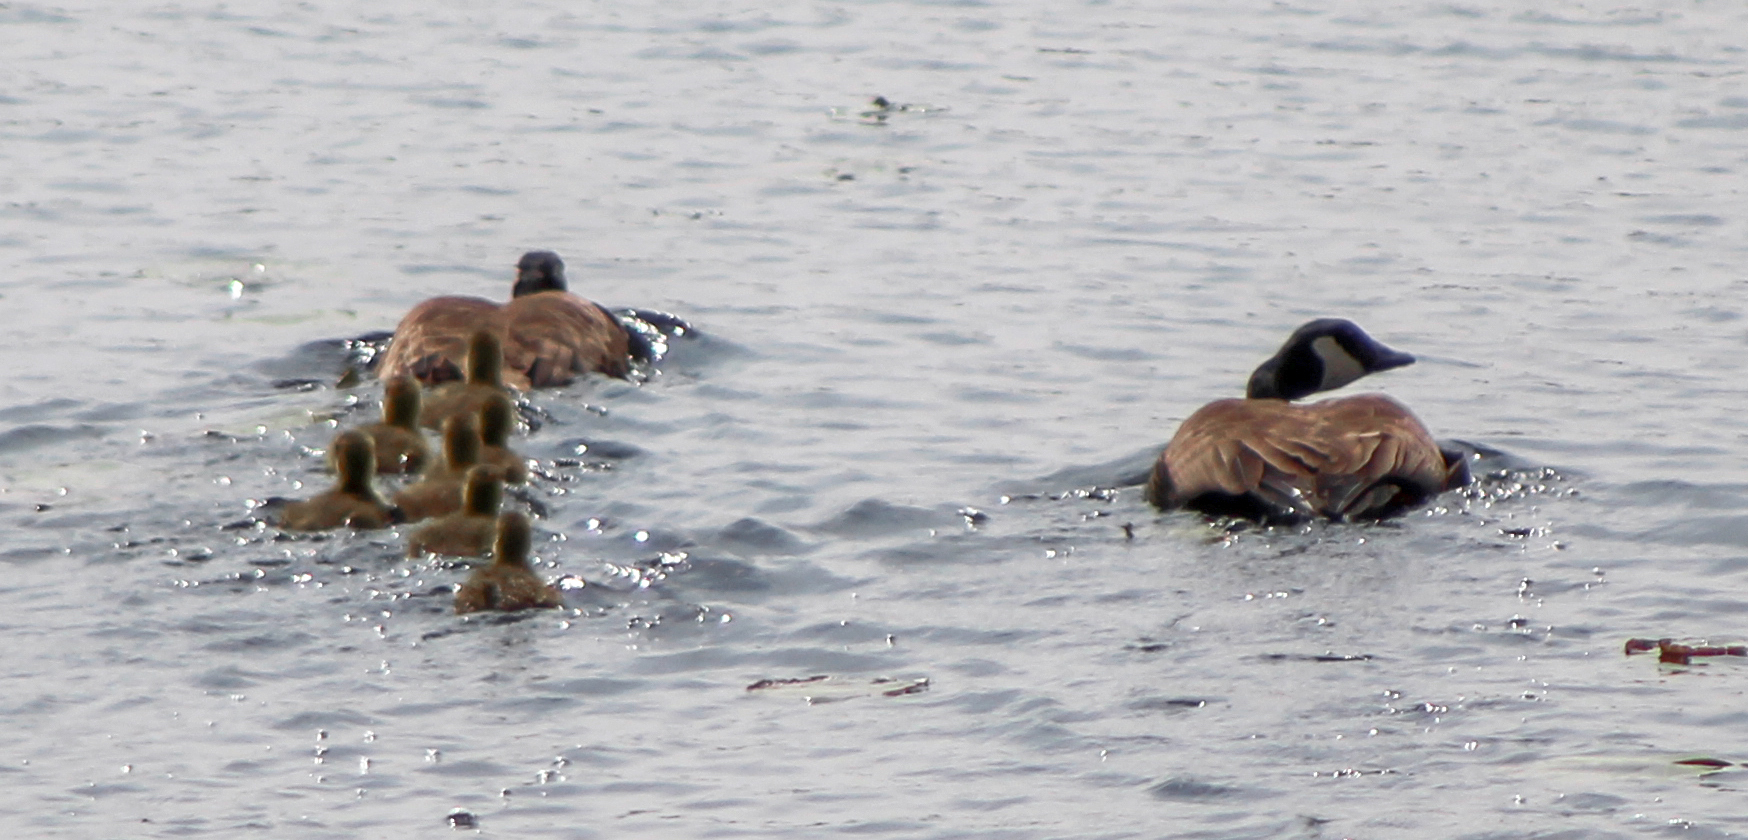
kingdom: Animalia
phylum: Chordata
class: Aves
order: Anseriformes
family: Anatidae
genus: Branta
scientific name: Branta canadensis
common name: Canada goose
